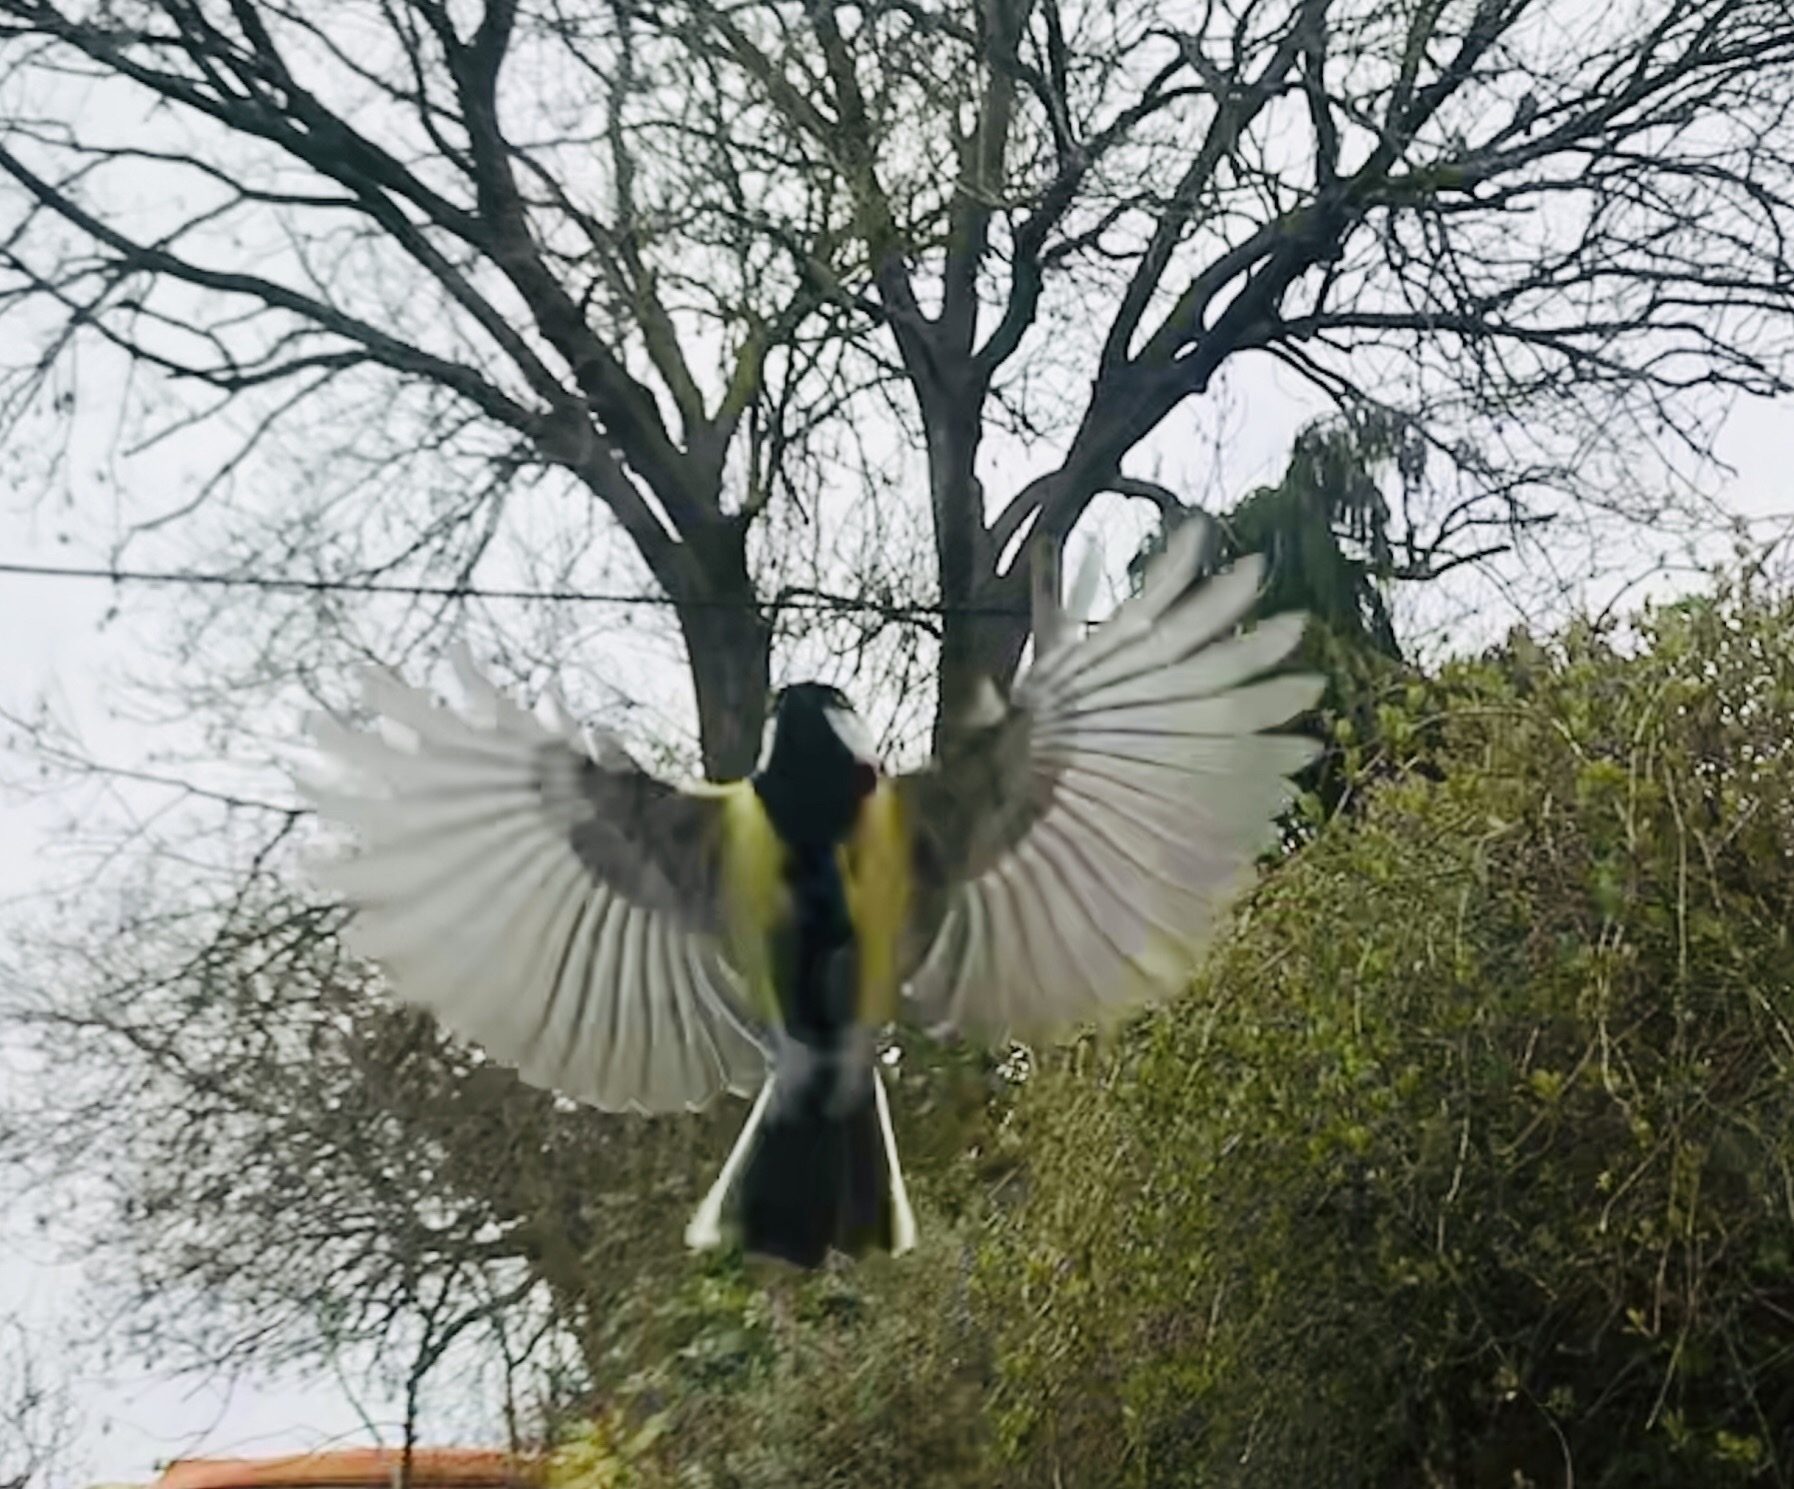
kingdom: Animalia
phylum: Chordata
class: Aves
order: Passeriformes
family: Paridae
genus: Parus
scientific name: Parus major
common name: Great tit
